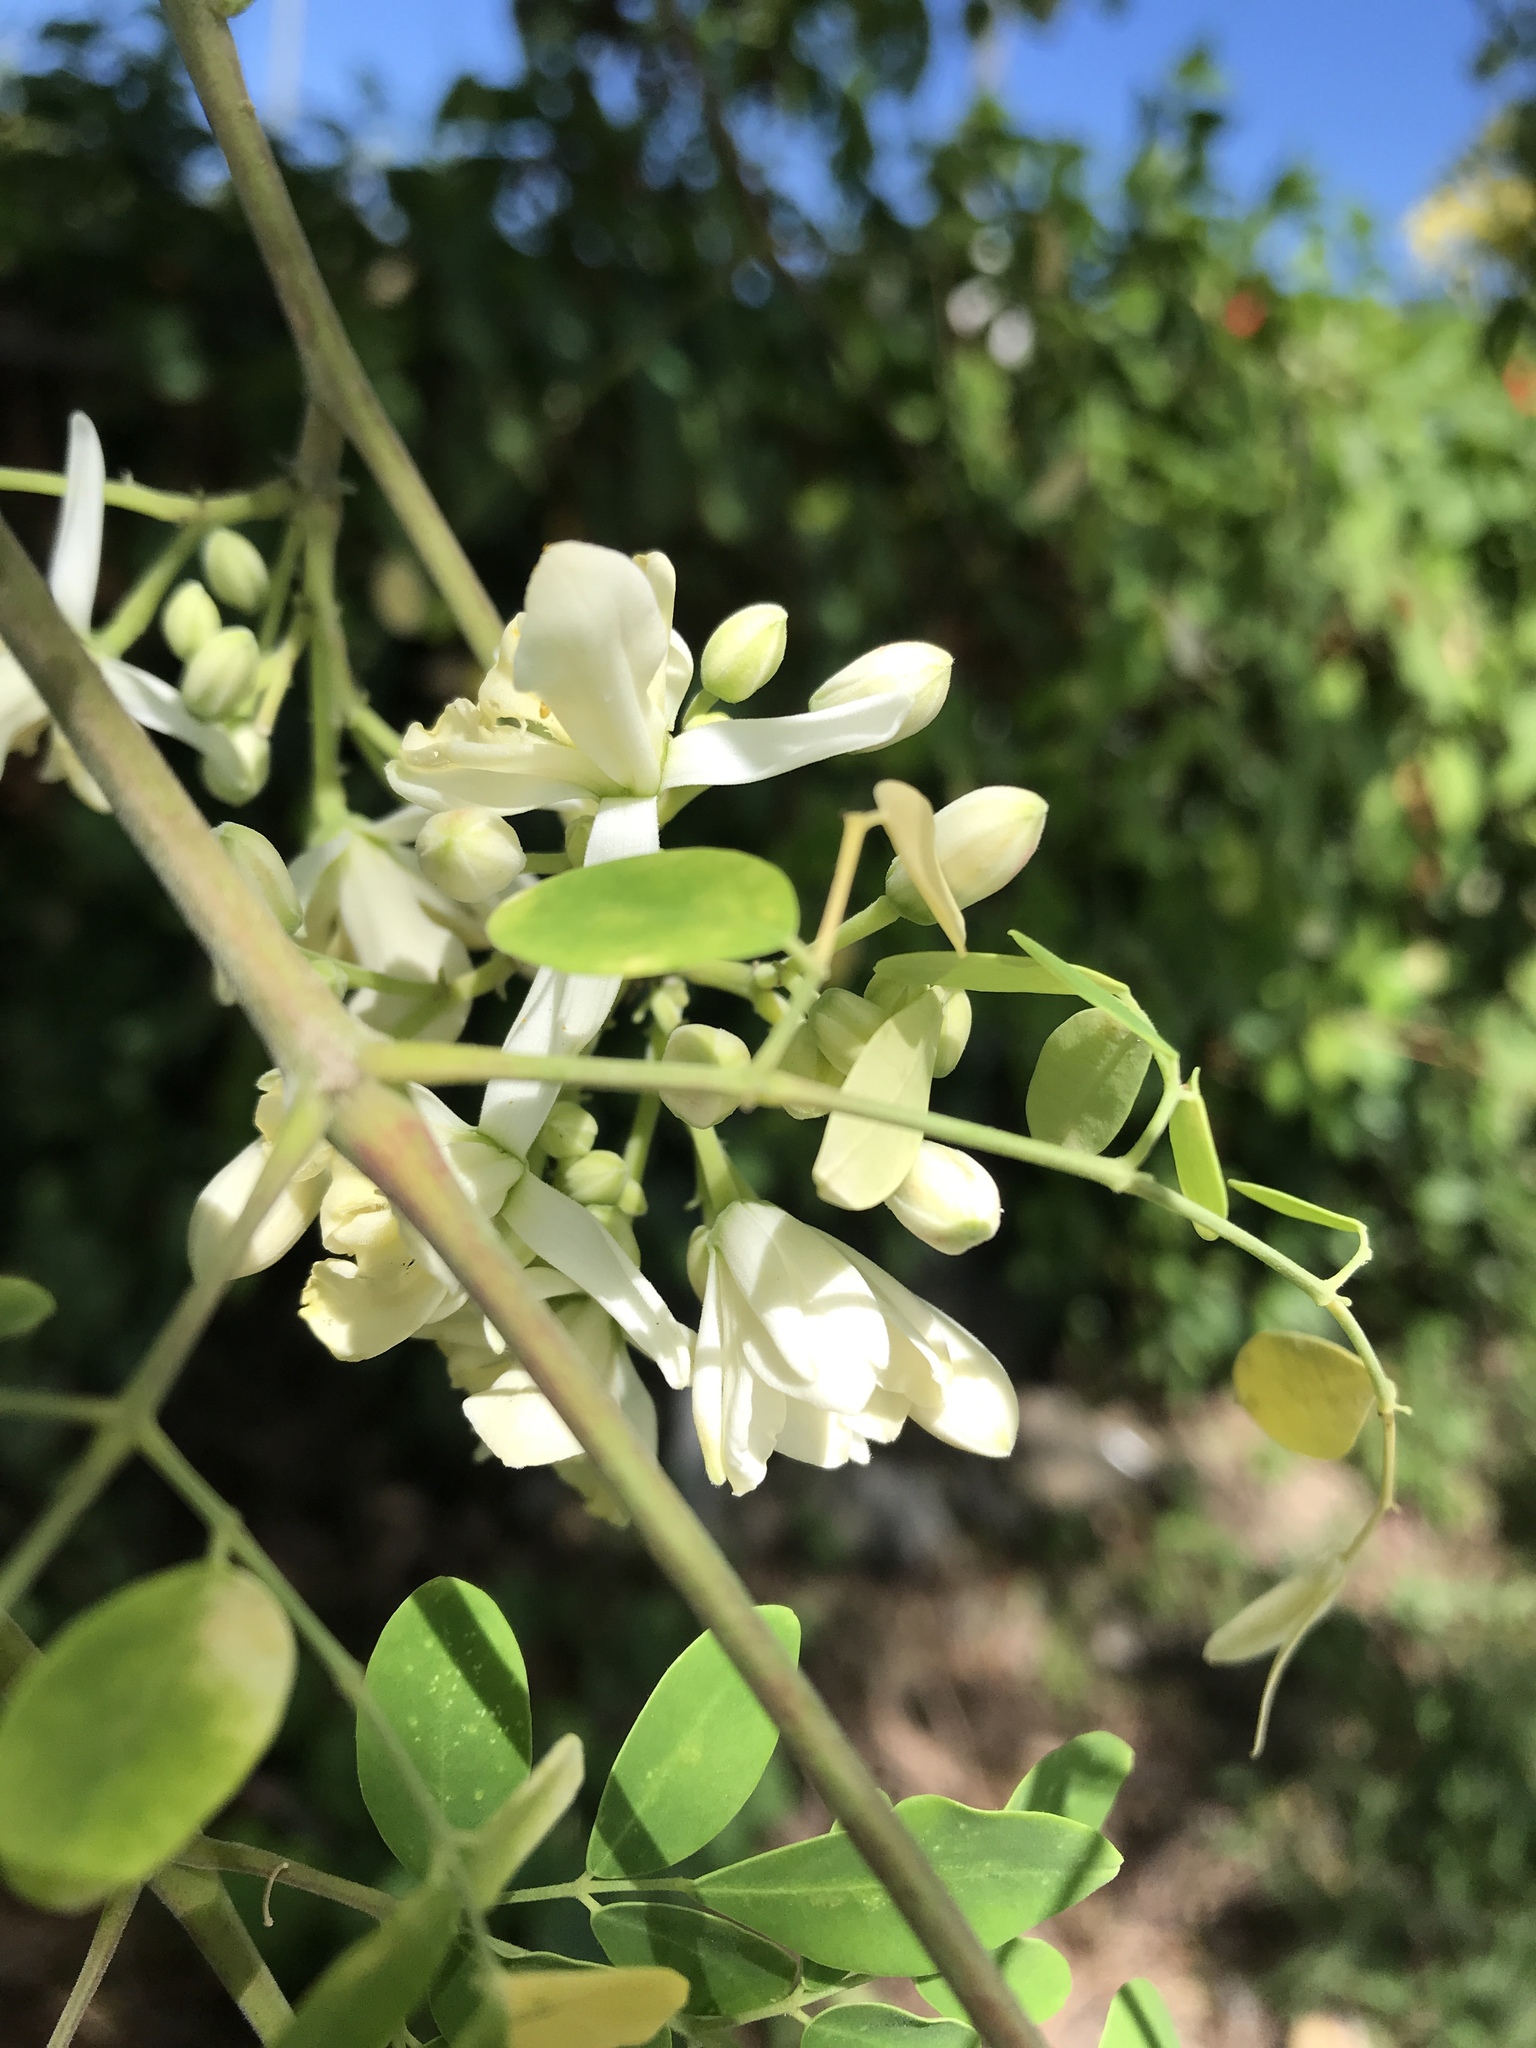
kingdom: Plantae
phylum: Tracheophyta
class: Magnoliopsida
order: Brassicales
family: Moringaceae
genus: Moringa
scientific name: Moringa oleifera
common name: Horseradish-tree
